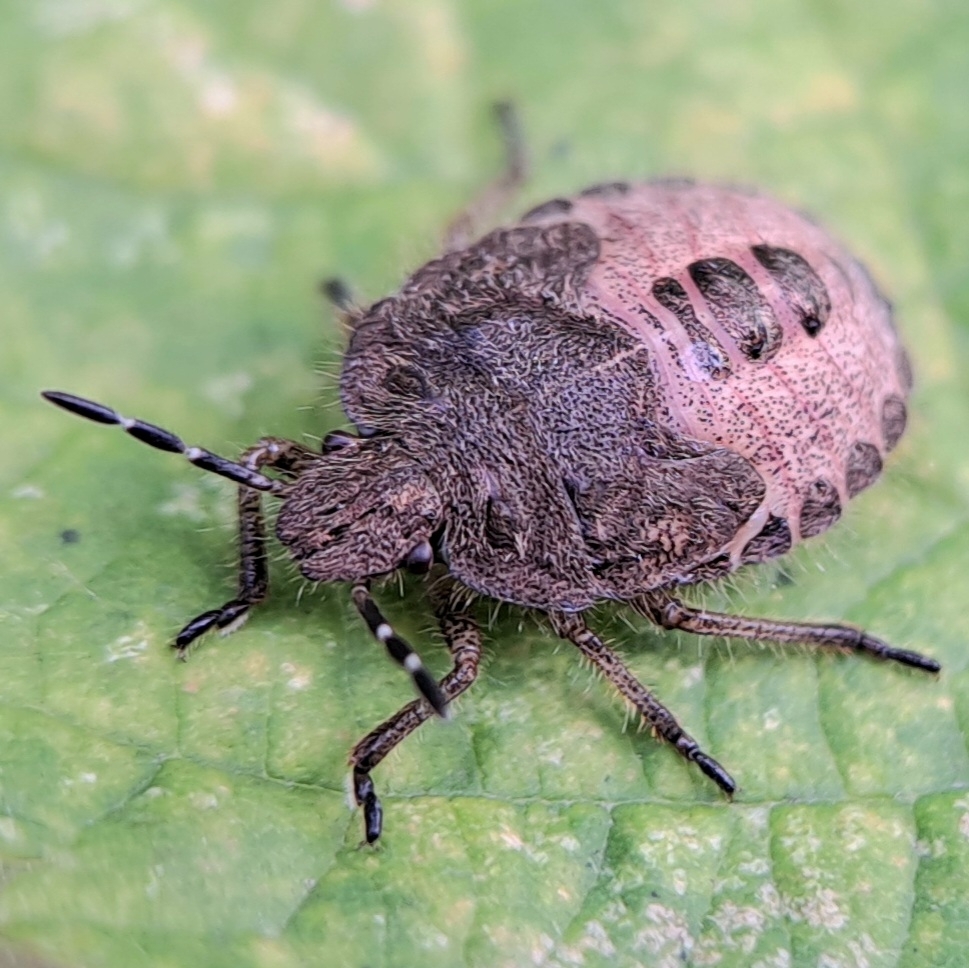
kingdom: Animalia
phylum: Arthropoda
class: Insecta
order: Hemiptera
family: Pentatomidae
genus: Dolycoris
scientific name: Dolycoris baccarum
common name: Sloe bug
